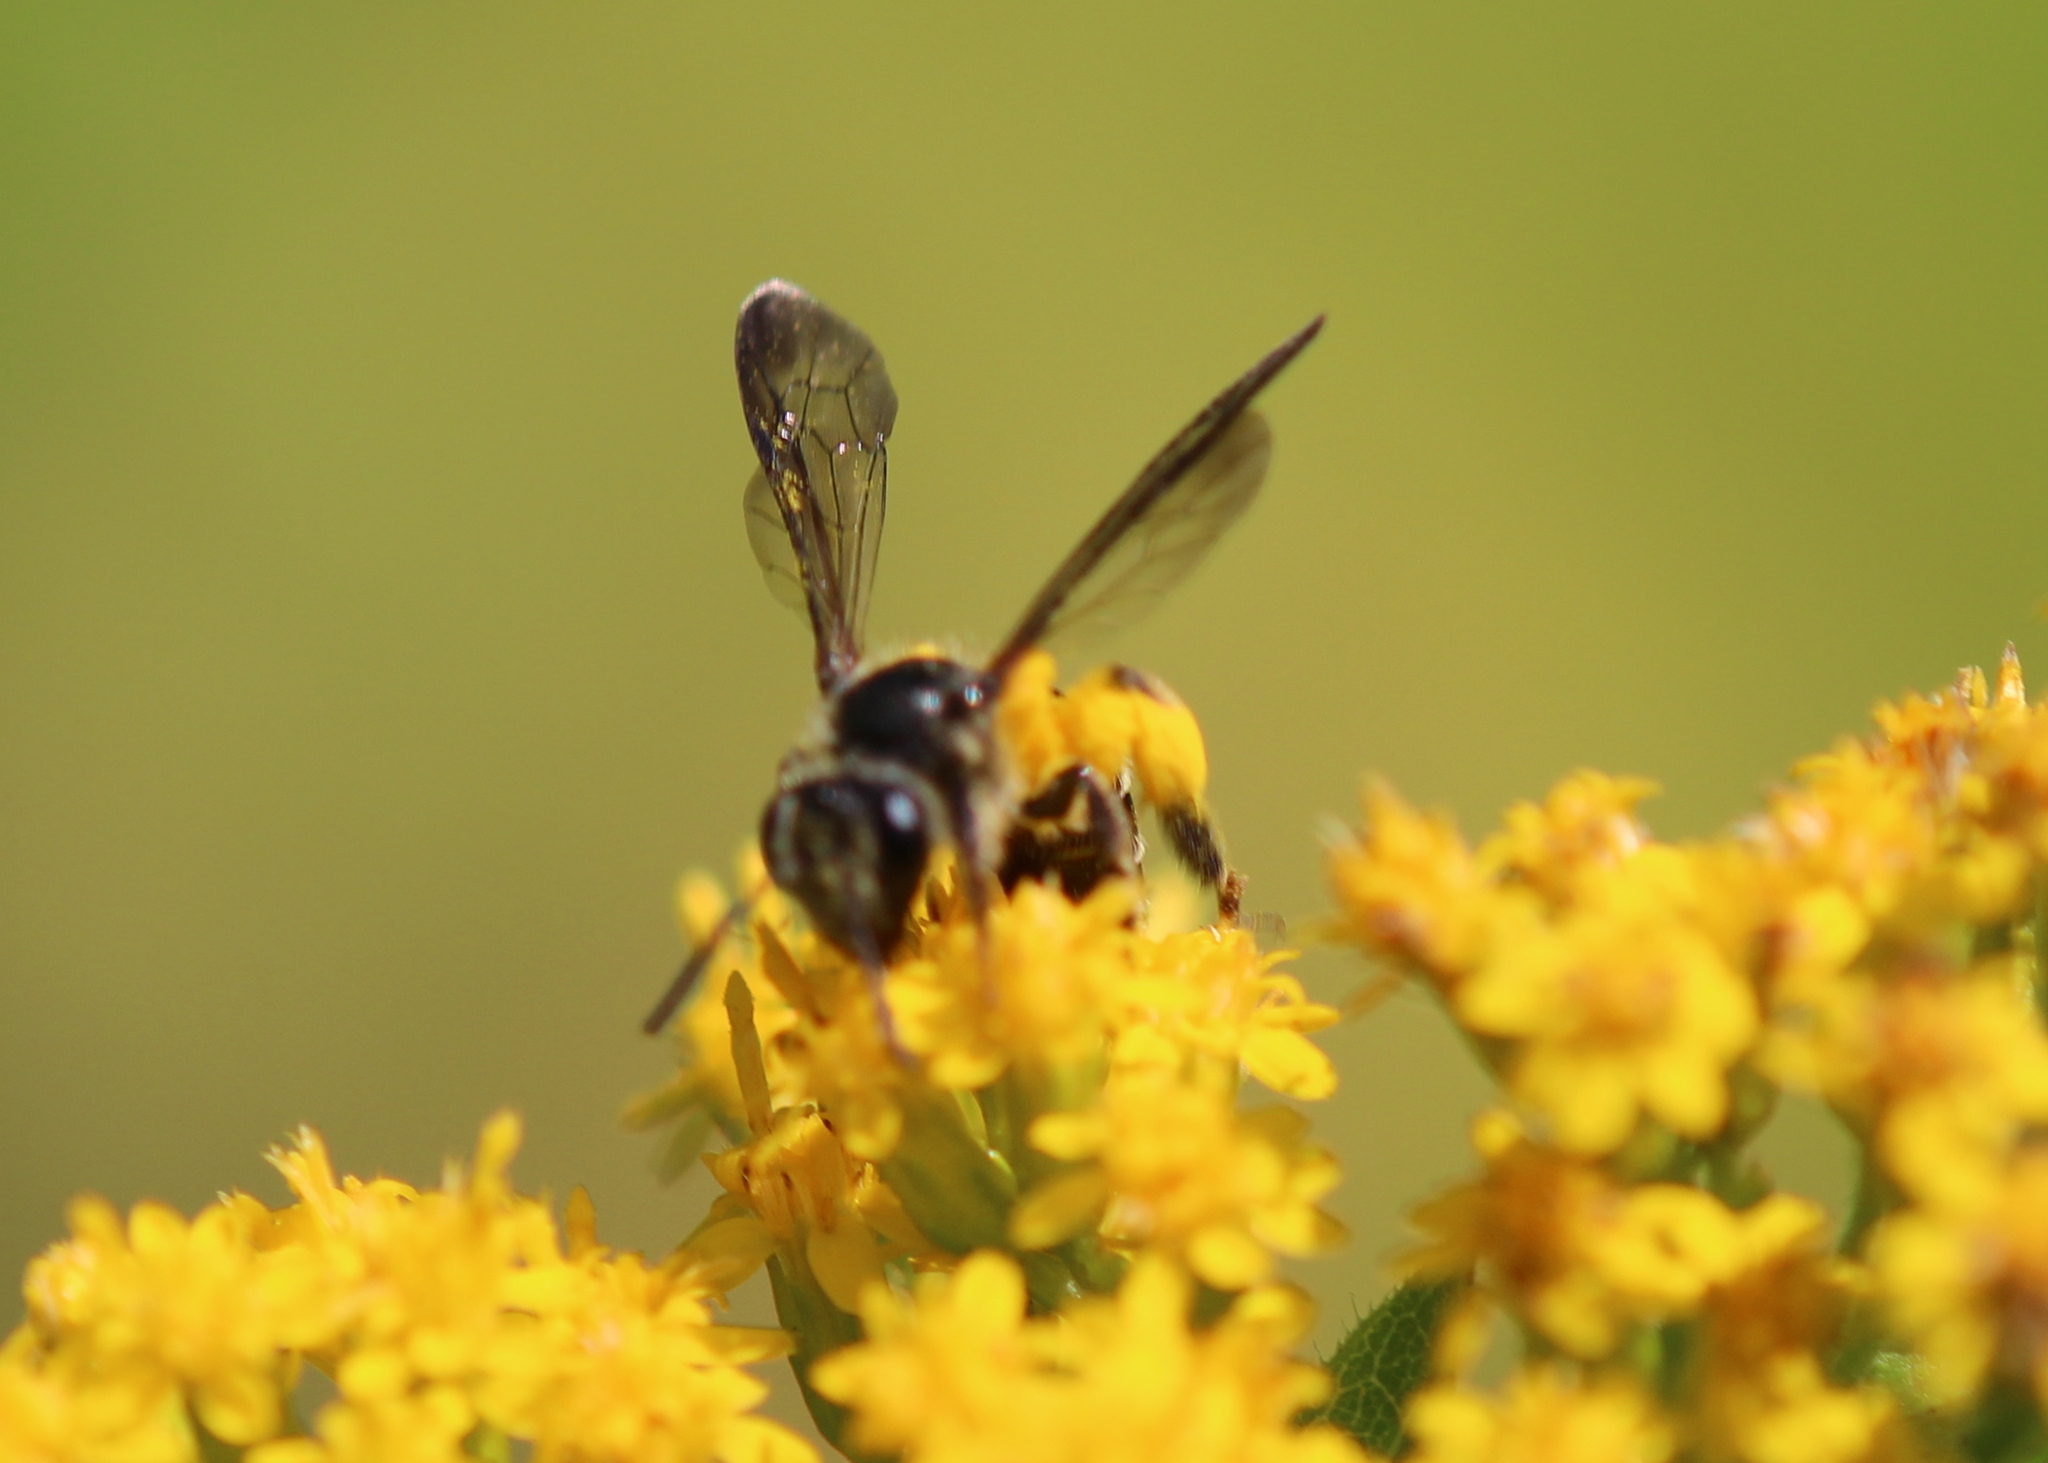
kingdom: Animalia
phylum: Arthropoda
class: Insecta
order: Hymenoptera
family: Andrenidae
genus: Andrena
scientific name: Andrena nubecula
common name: Cloudy-winged mining bee
